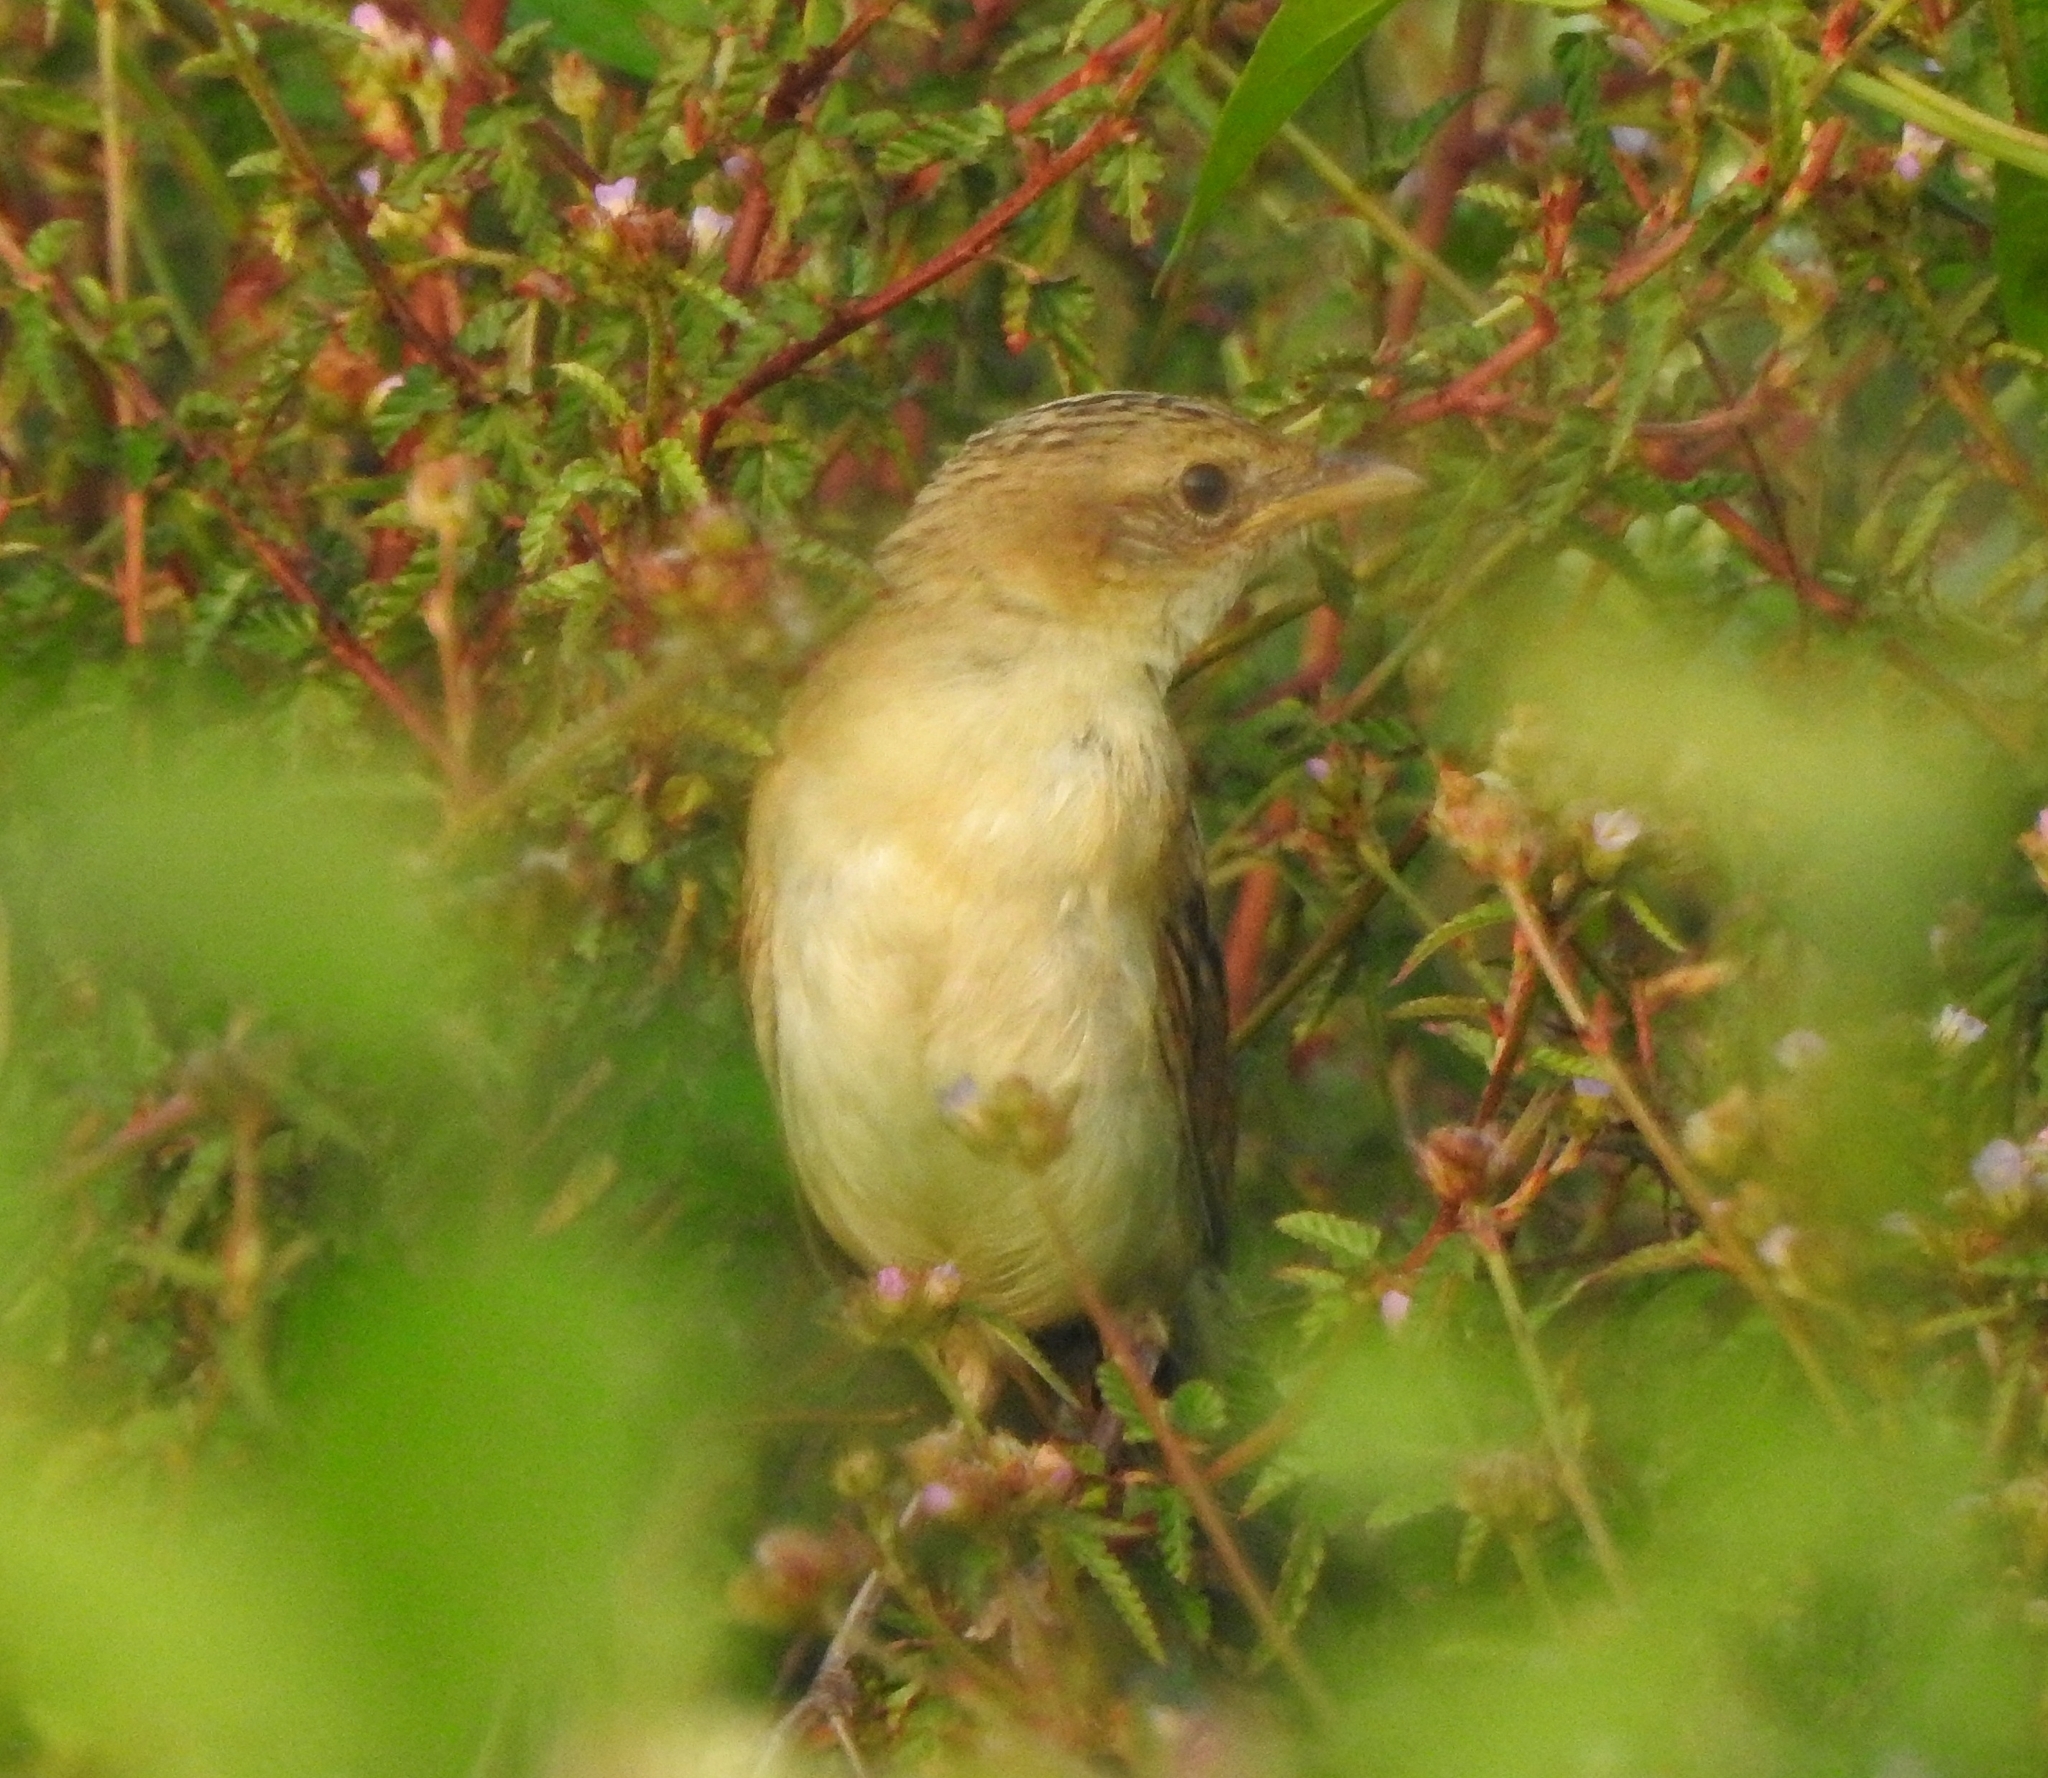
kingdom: Animalia
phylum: Chordata
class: Aves
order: Passeriformes
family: Locustellidae
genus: Chaetornis
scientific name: Chaetornis striata
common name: Bristled grassbird
